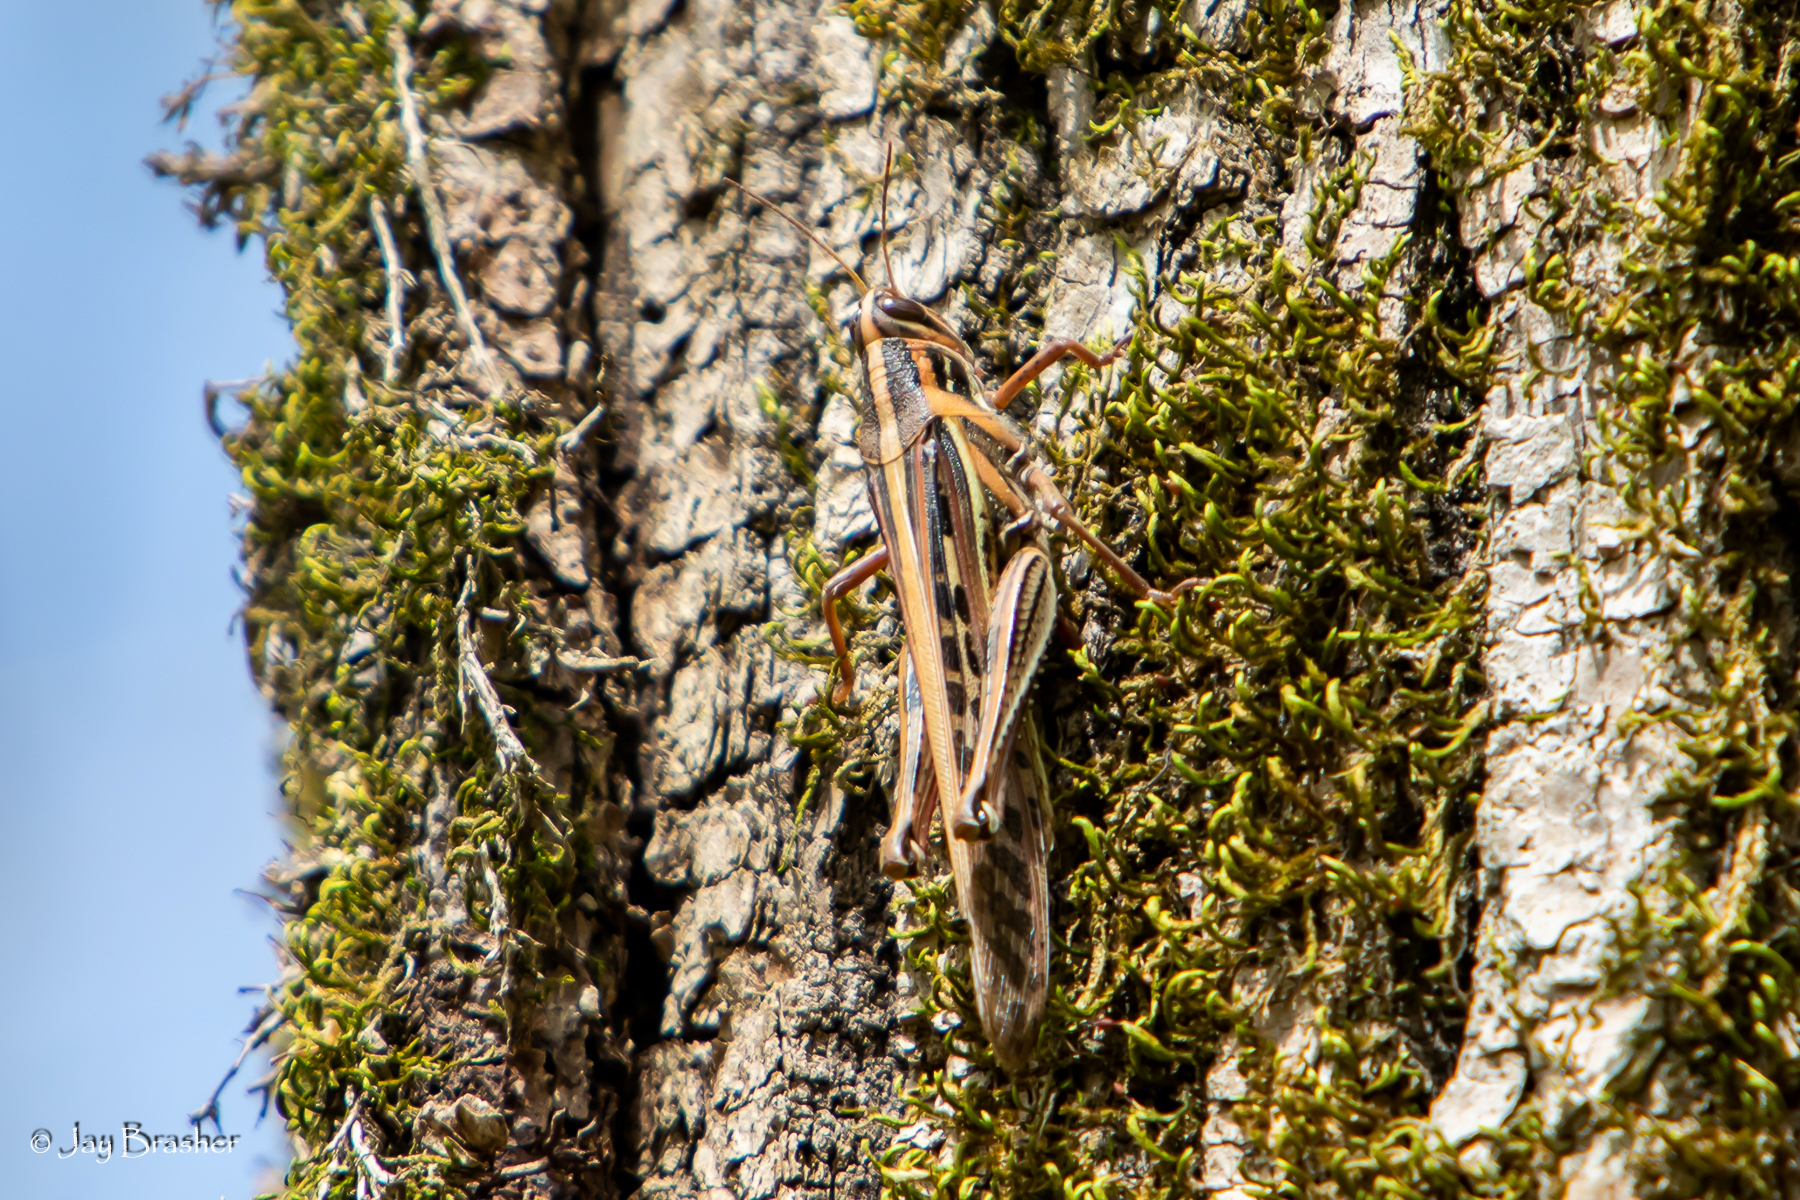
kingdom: Animalia
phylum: Arthropoda
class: Insecta
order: Orthoptera
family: Acrididae
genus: Schistocerca
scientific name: Schistocerca americana
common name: American bird locust
